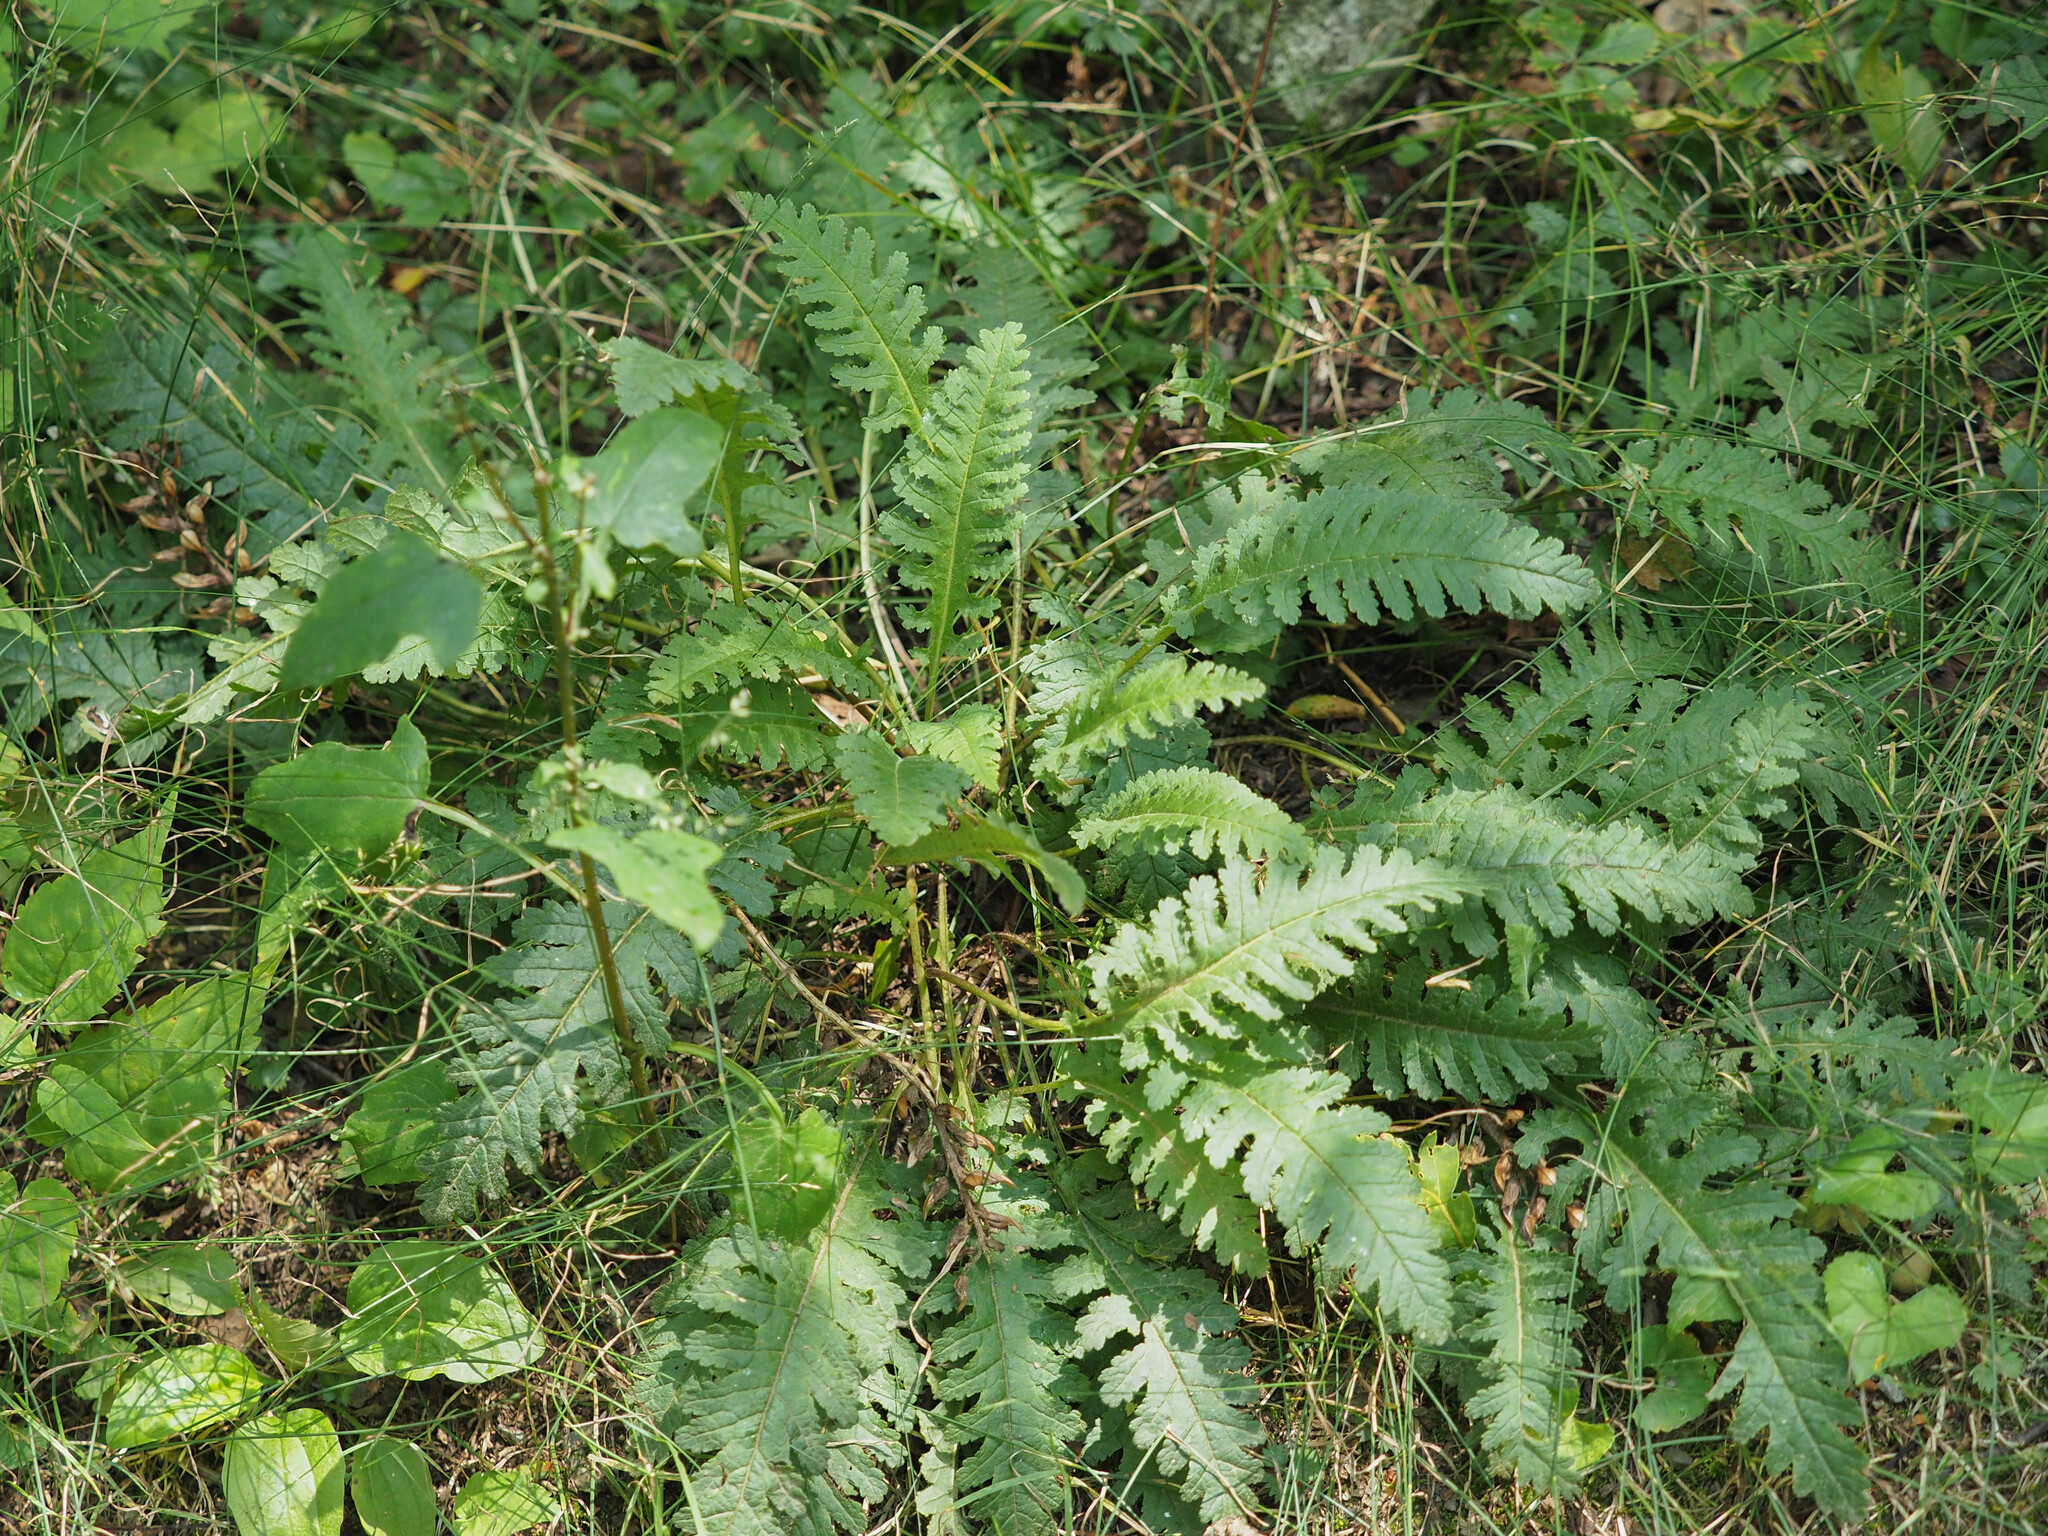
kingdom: Plantae
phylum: Tracheophyta
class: Magnoliopsida
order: Lamiales
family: Orobanchaceae
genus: Pedicularis
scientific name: Pedicularis canadensis
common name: Early lousewort
